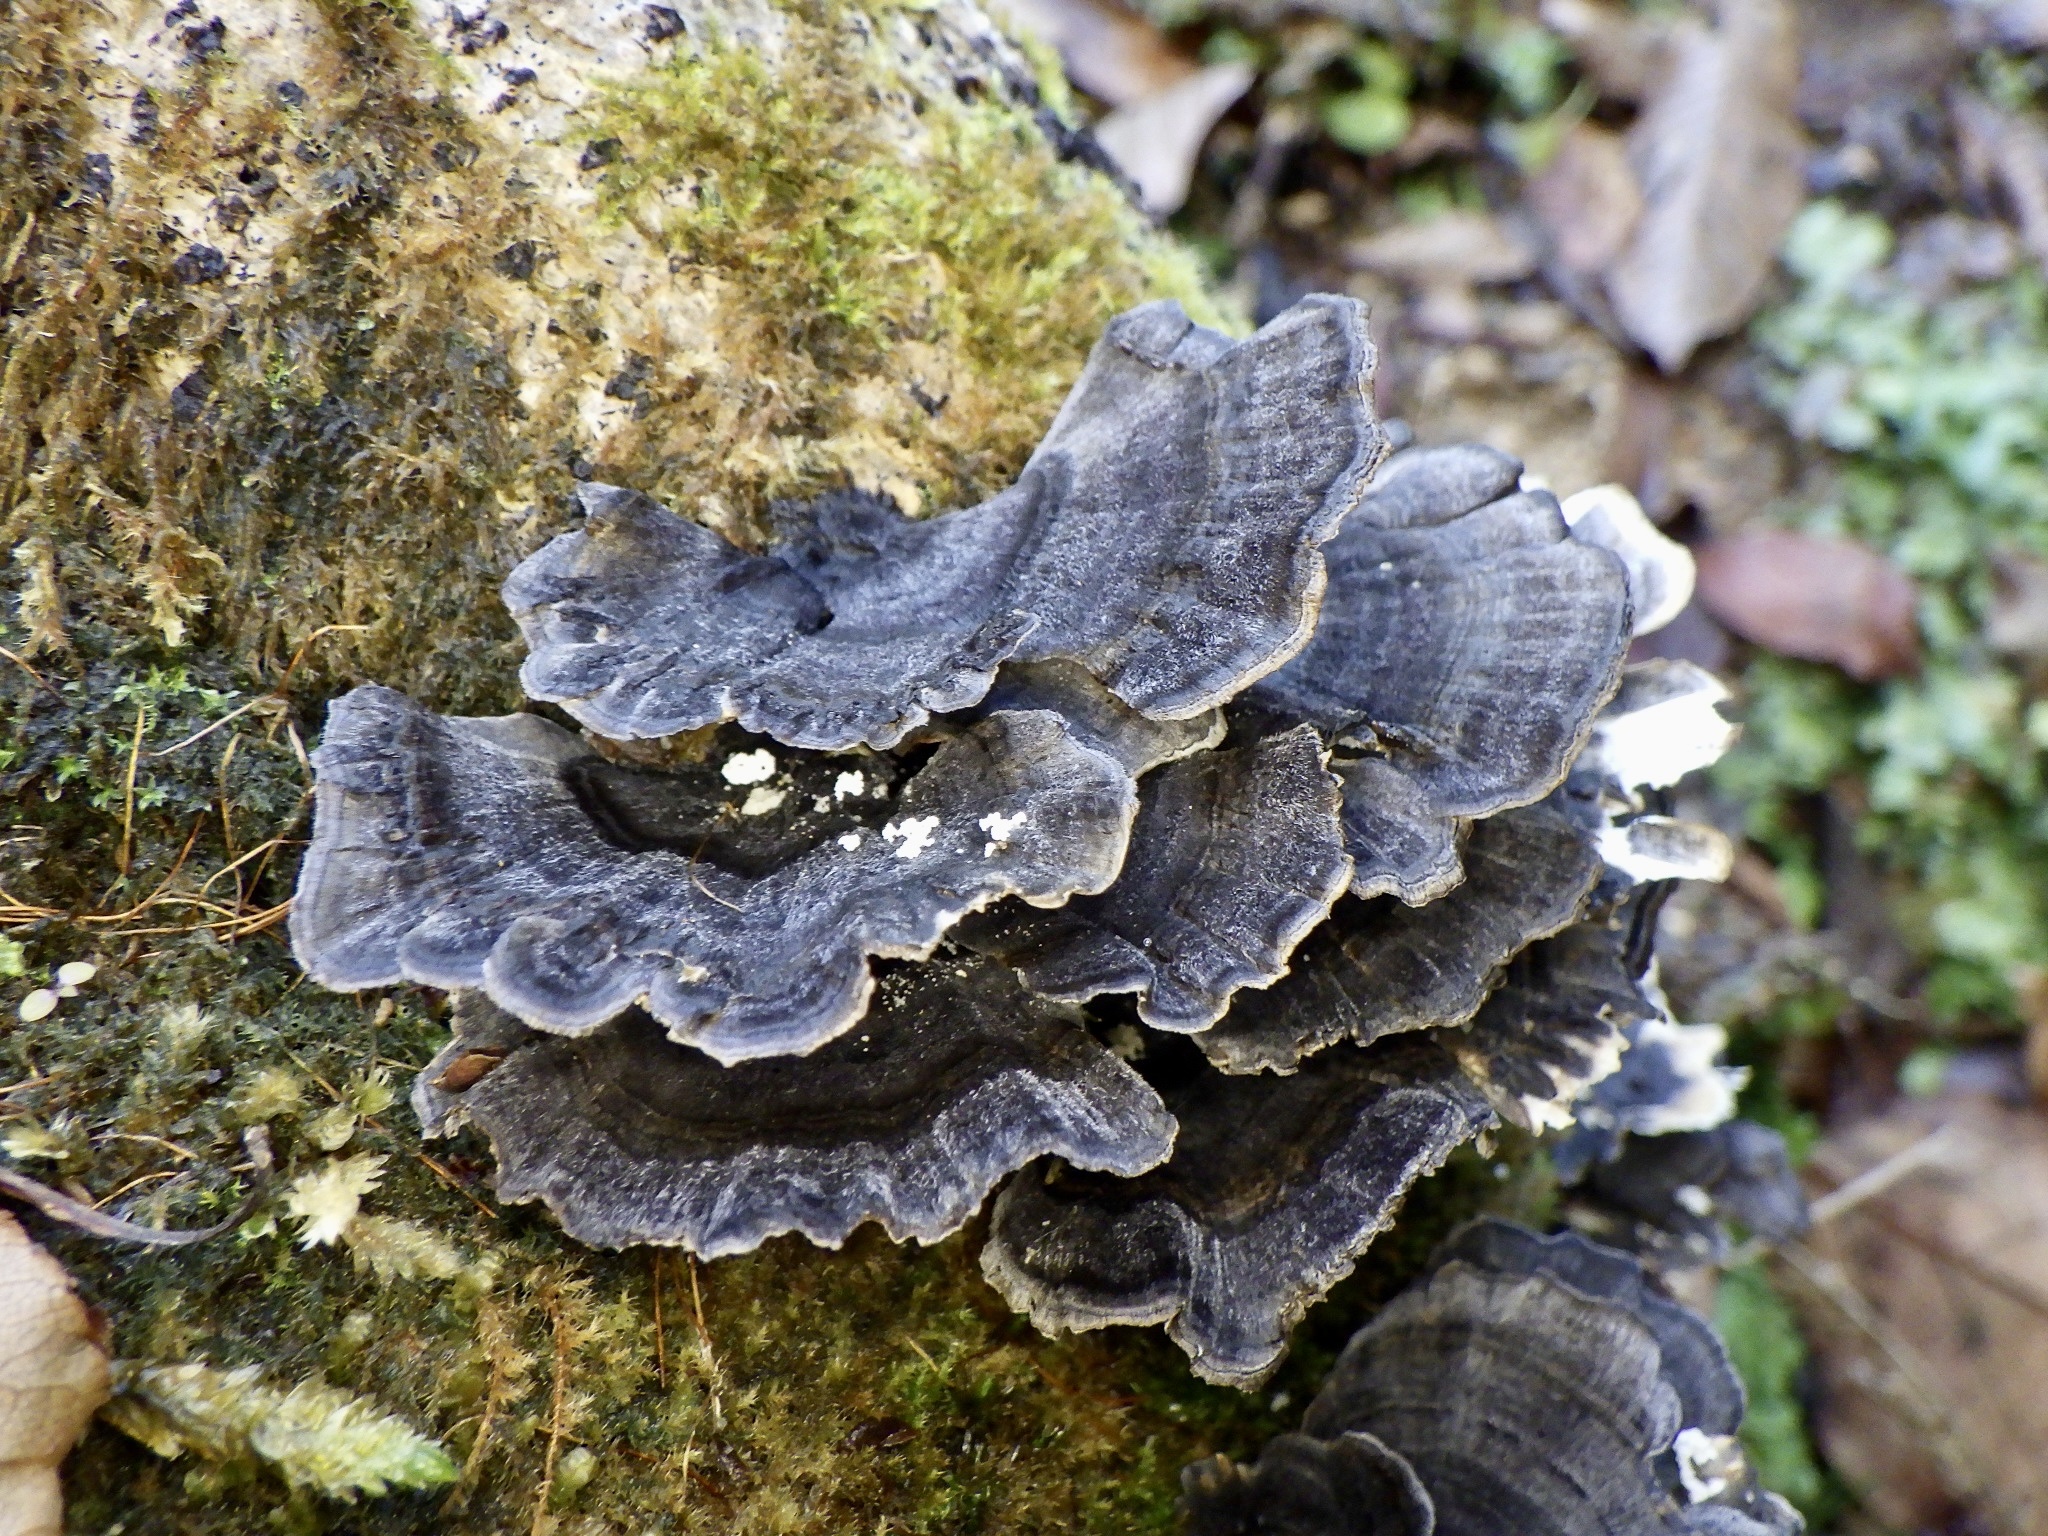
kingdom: Fungi
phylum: Basidiomycota
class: Agaricomycetes
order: Polyporales
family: Polyporaceae
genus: Trametes
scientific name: Trametes versicolor
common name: Turkeytail
